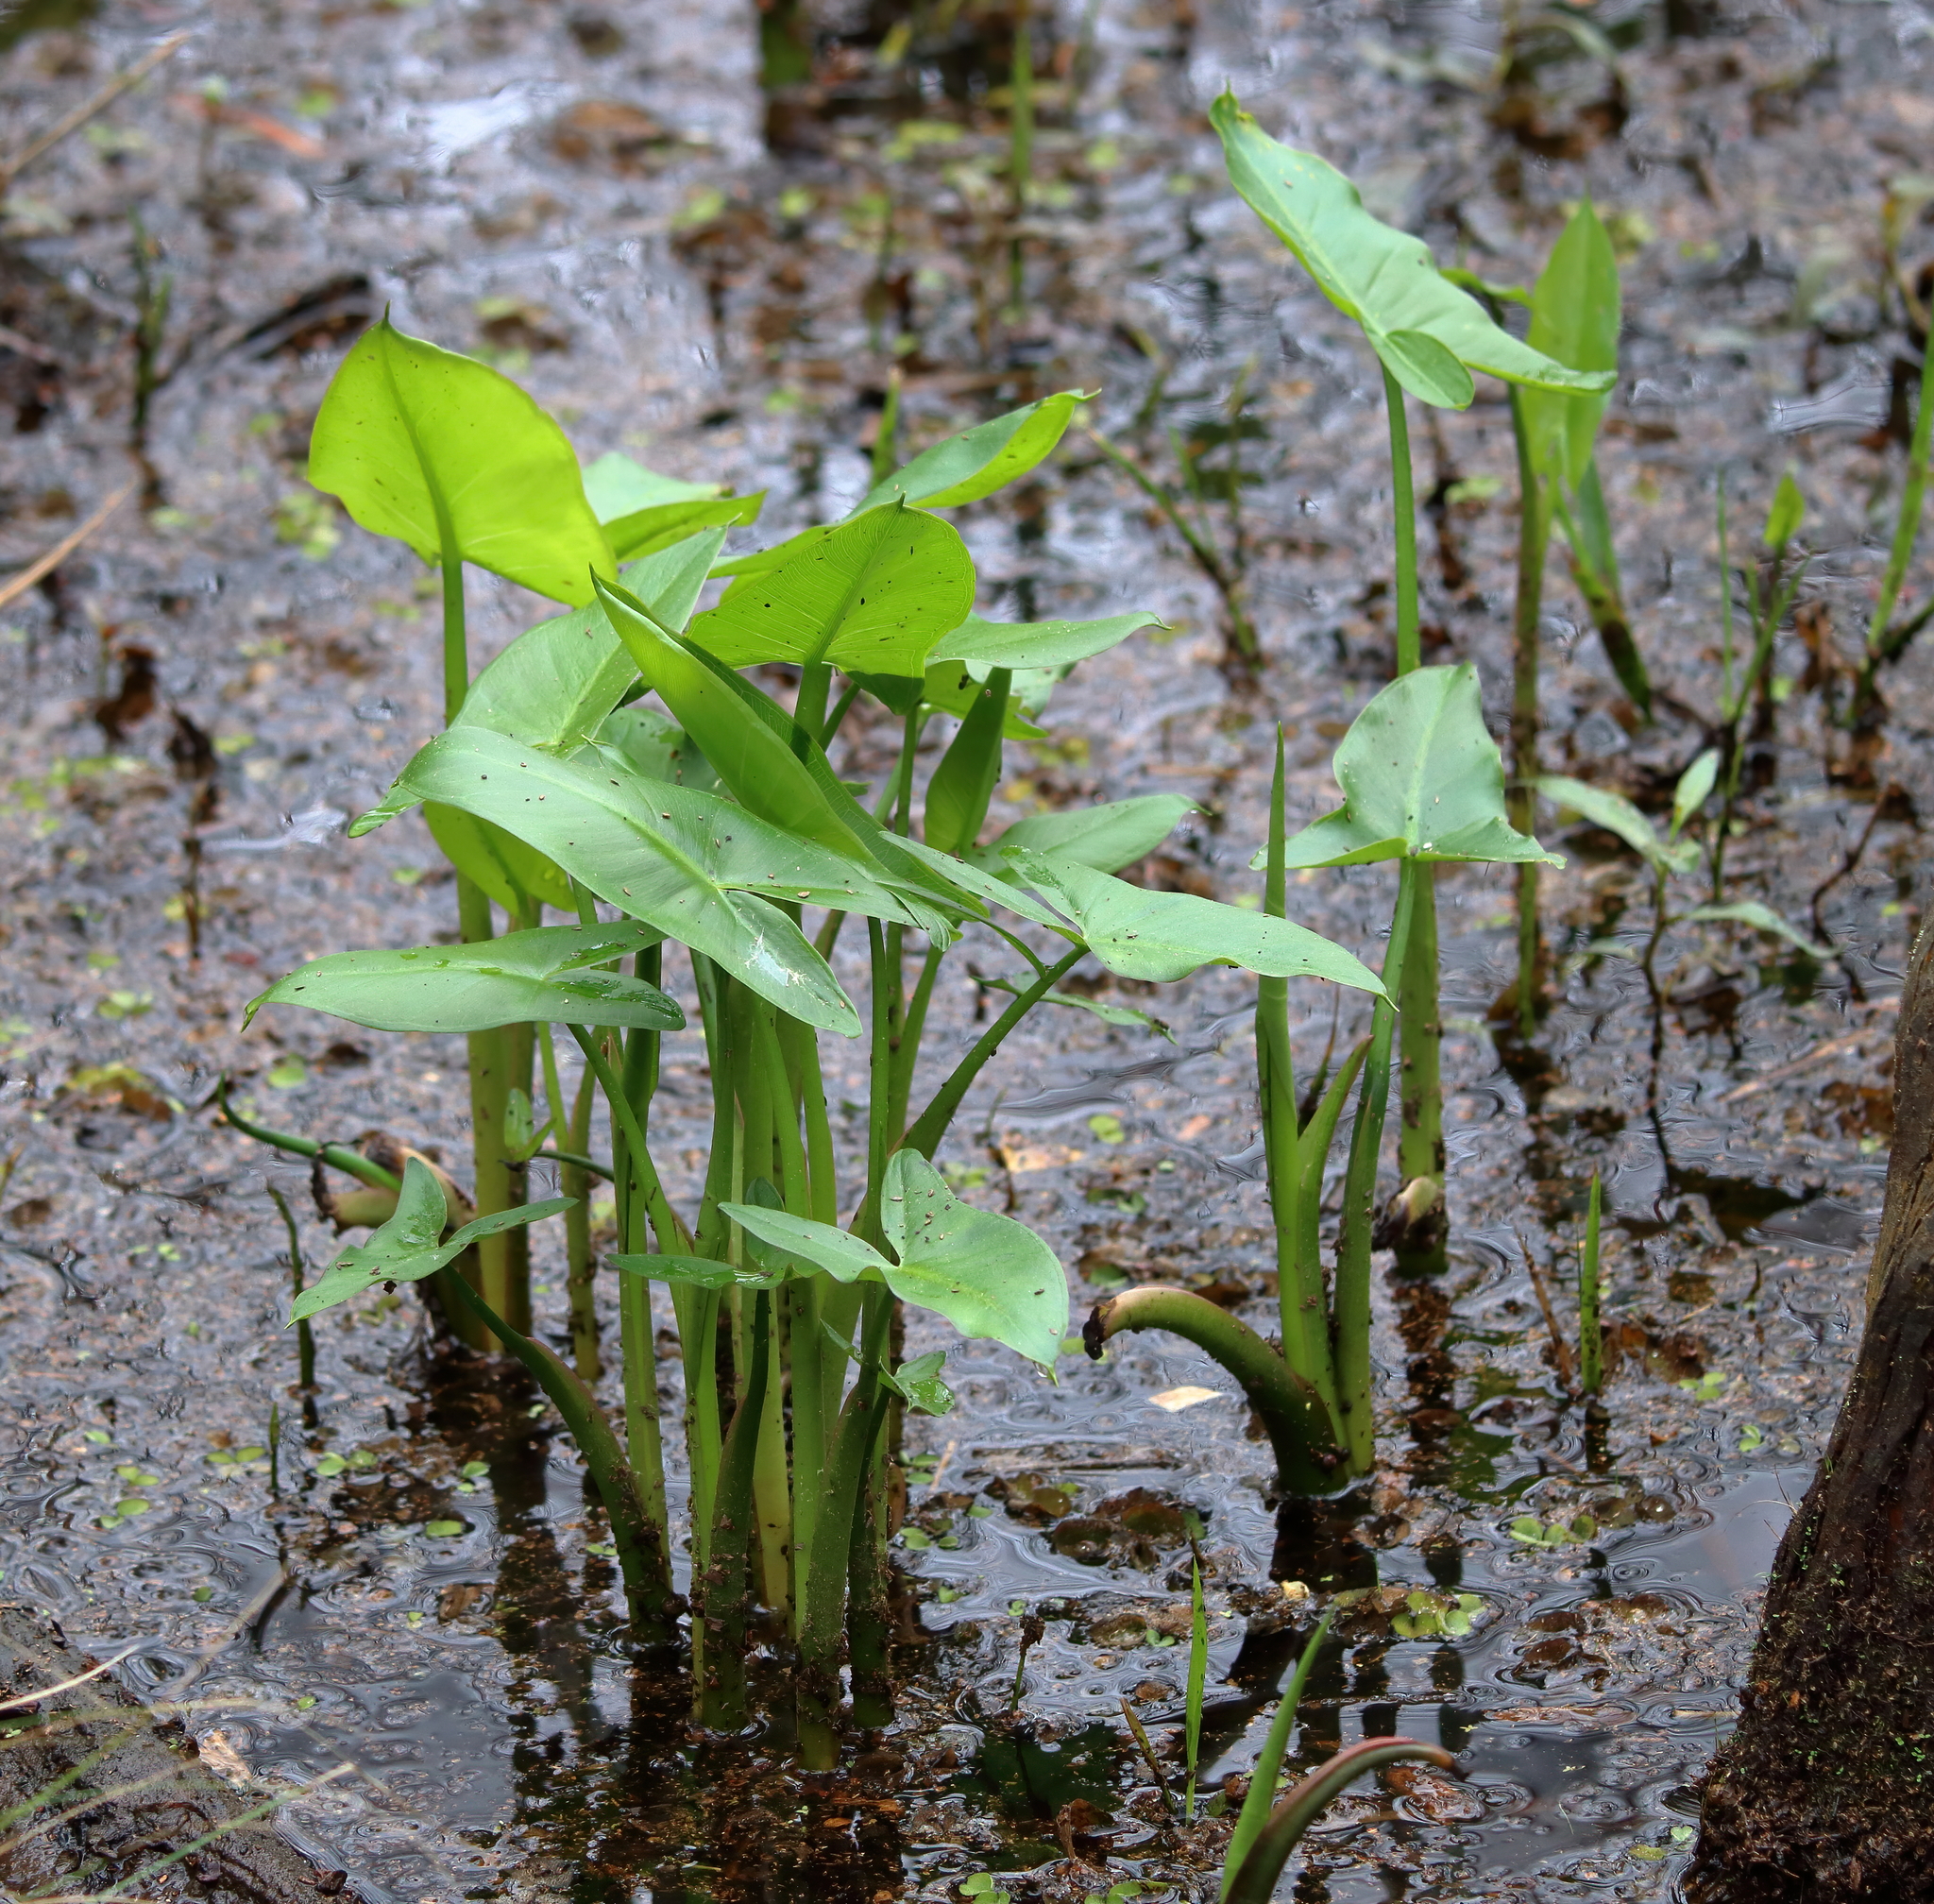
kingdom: Plantae
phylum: Tracheophyta
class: Liliopsida
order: Alismatales
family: Araceae
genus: Peltandra
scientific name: Peltandra virginica
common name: Arrow arum
